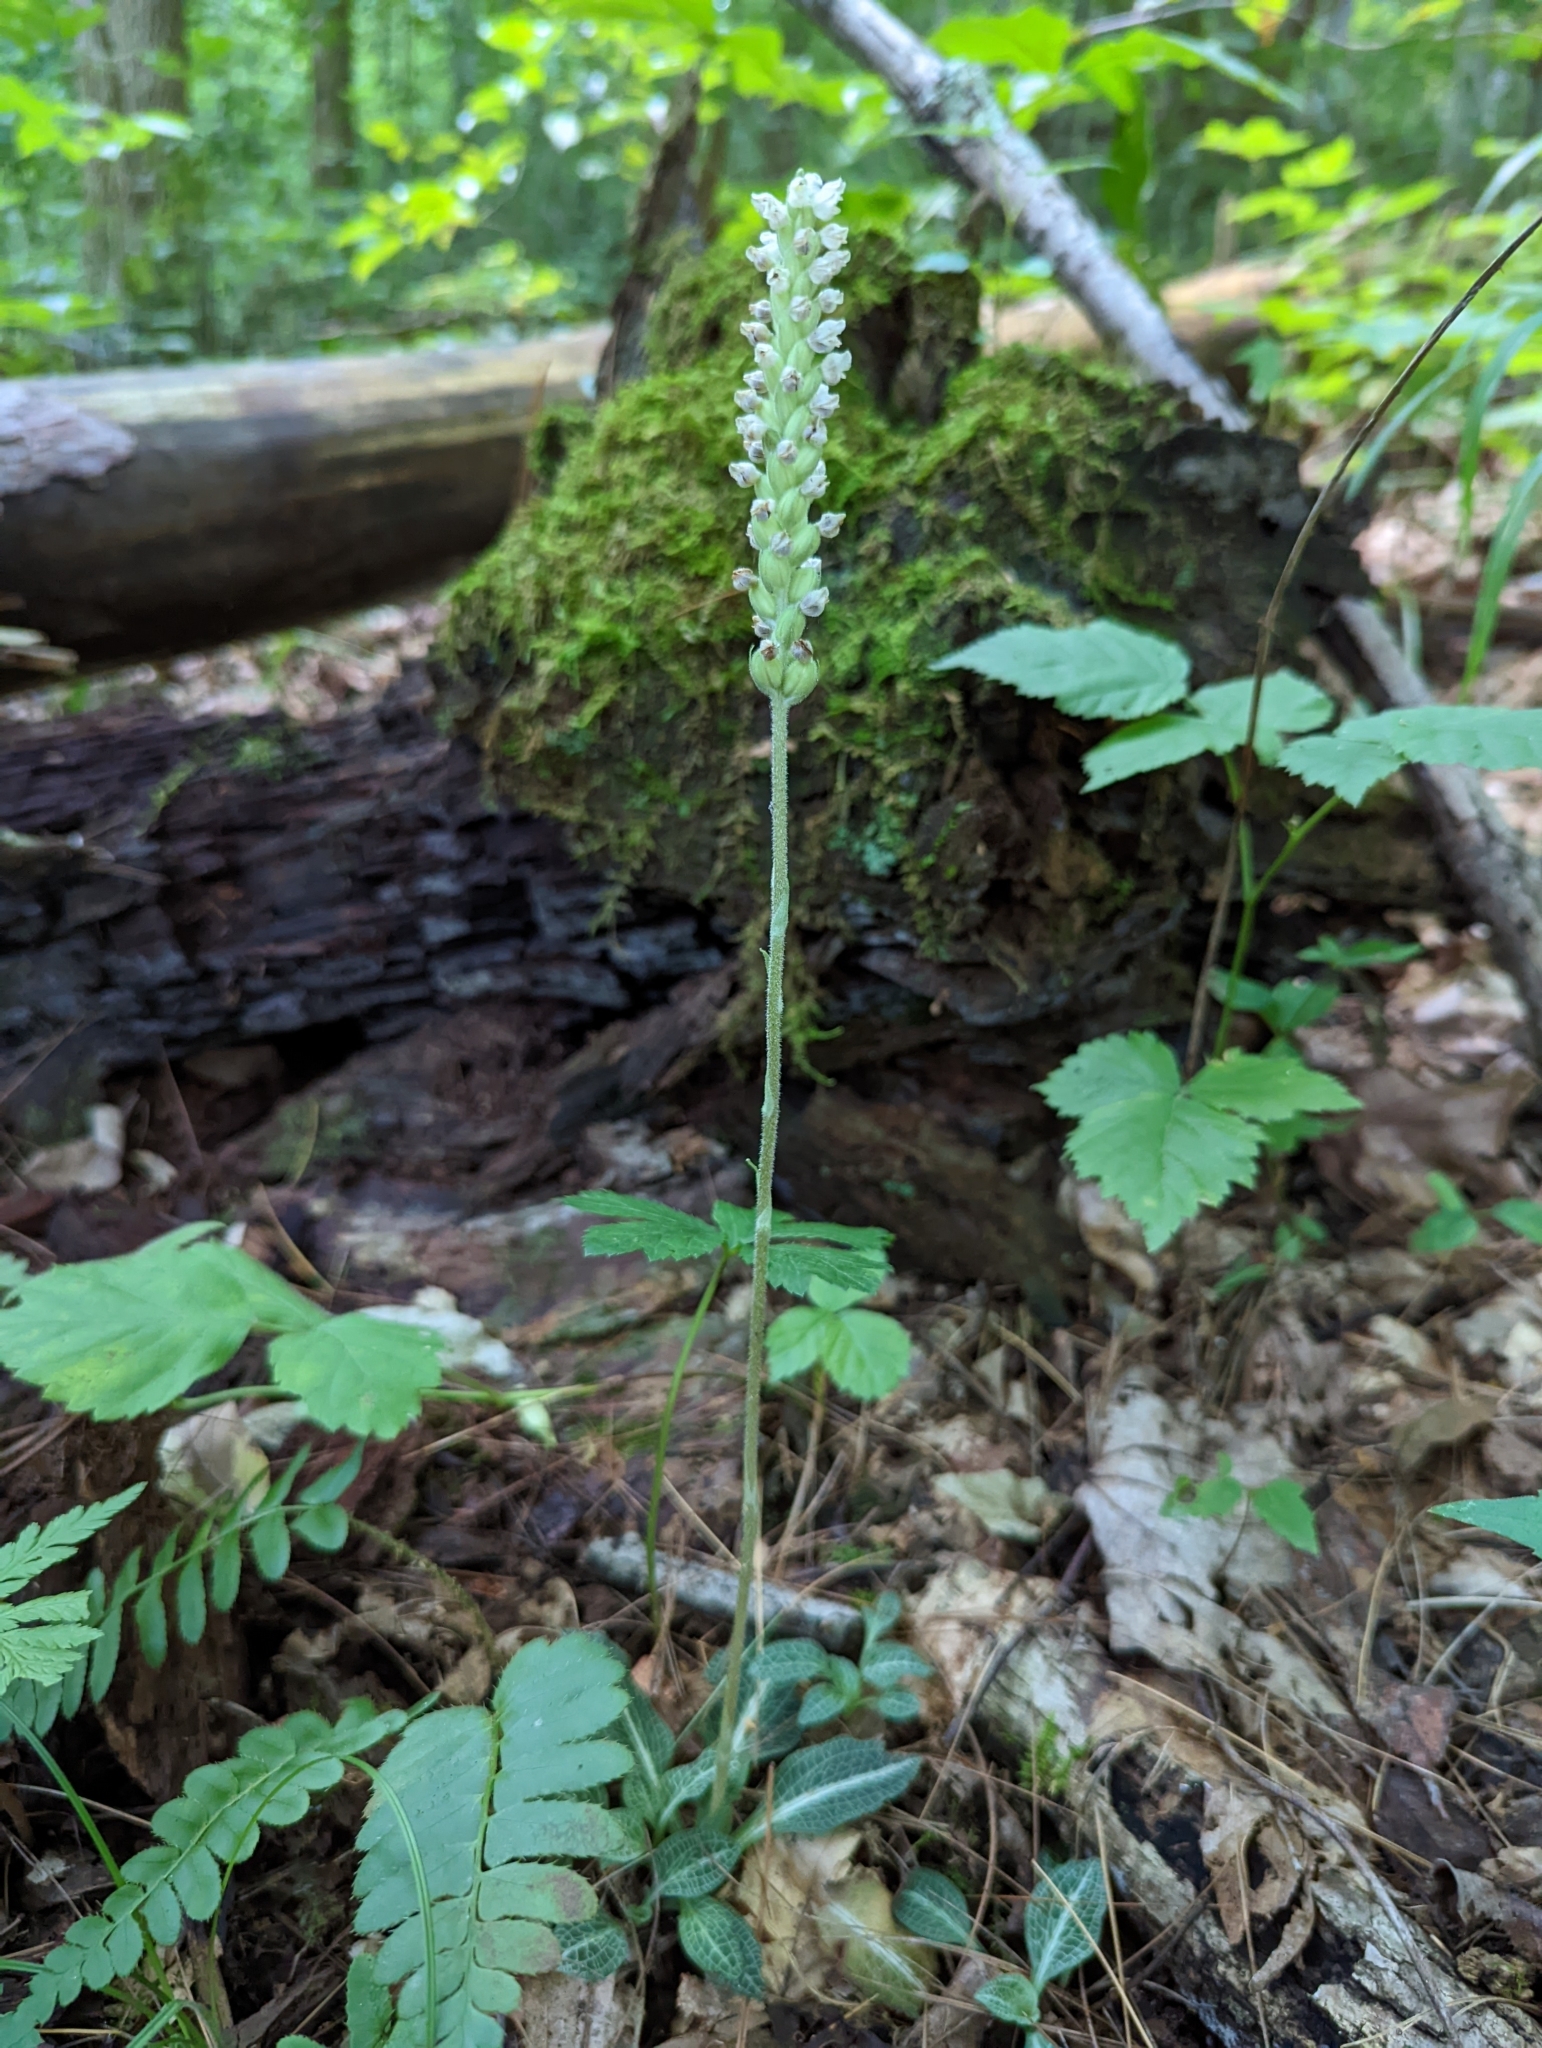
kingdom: Plantae
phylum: Tracheophyta
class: Liliopsida
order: Asparagales
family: Orchidaceae
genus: Goodyera
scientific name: Goodyera pubescens
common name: Downy rattlesnake-plantain
